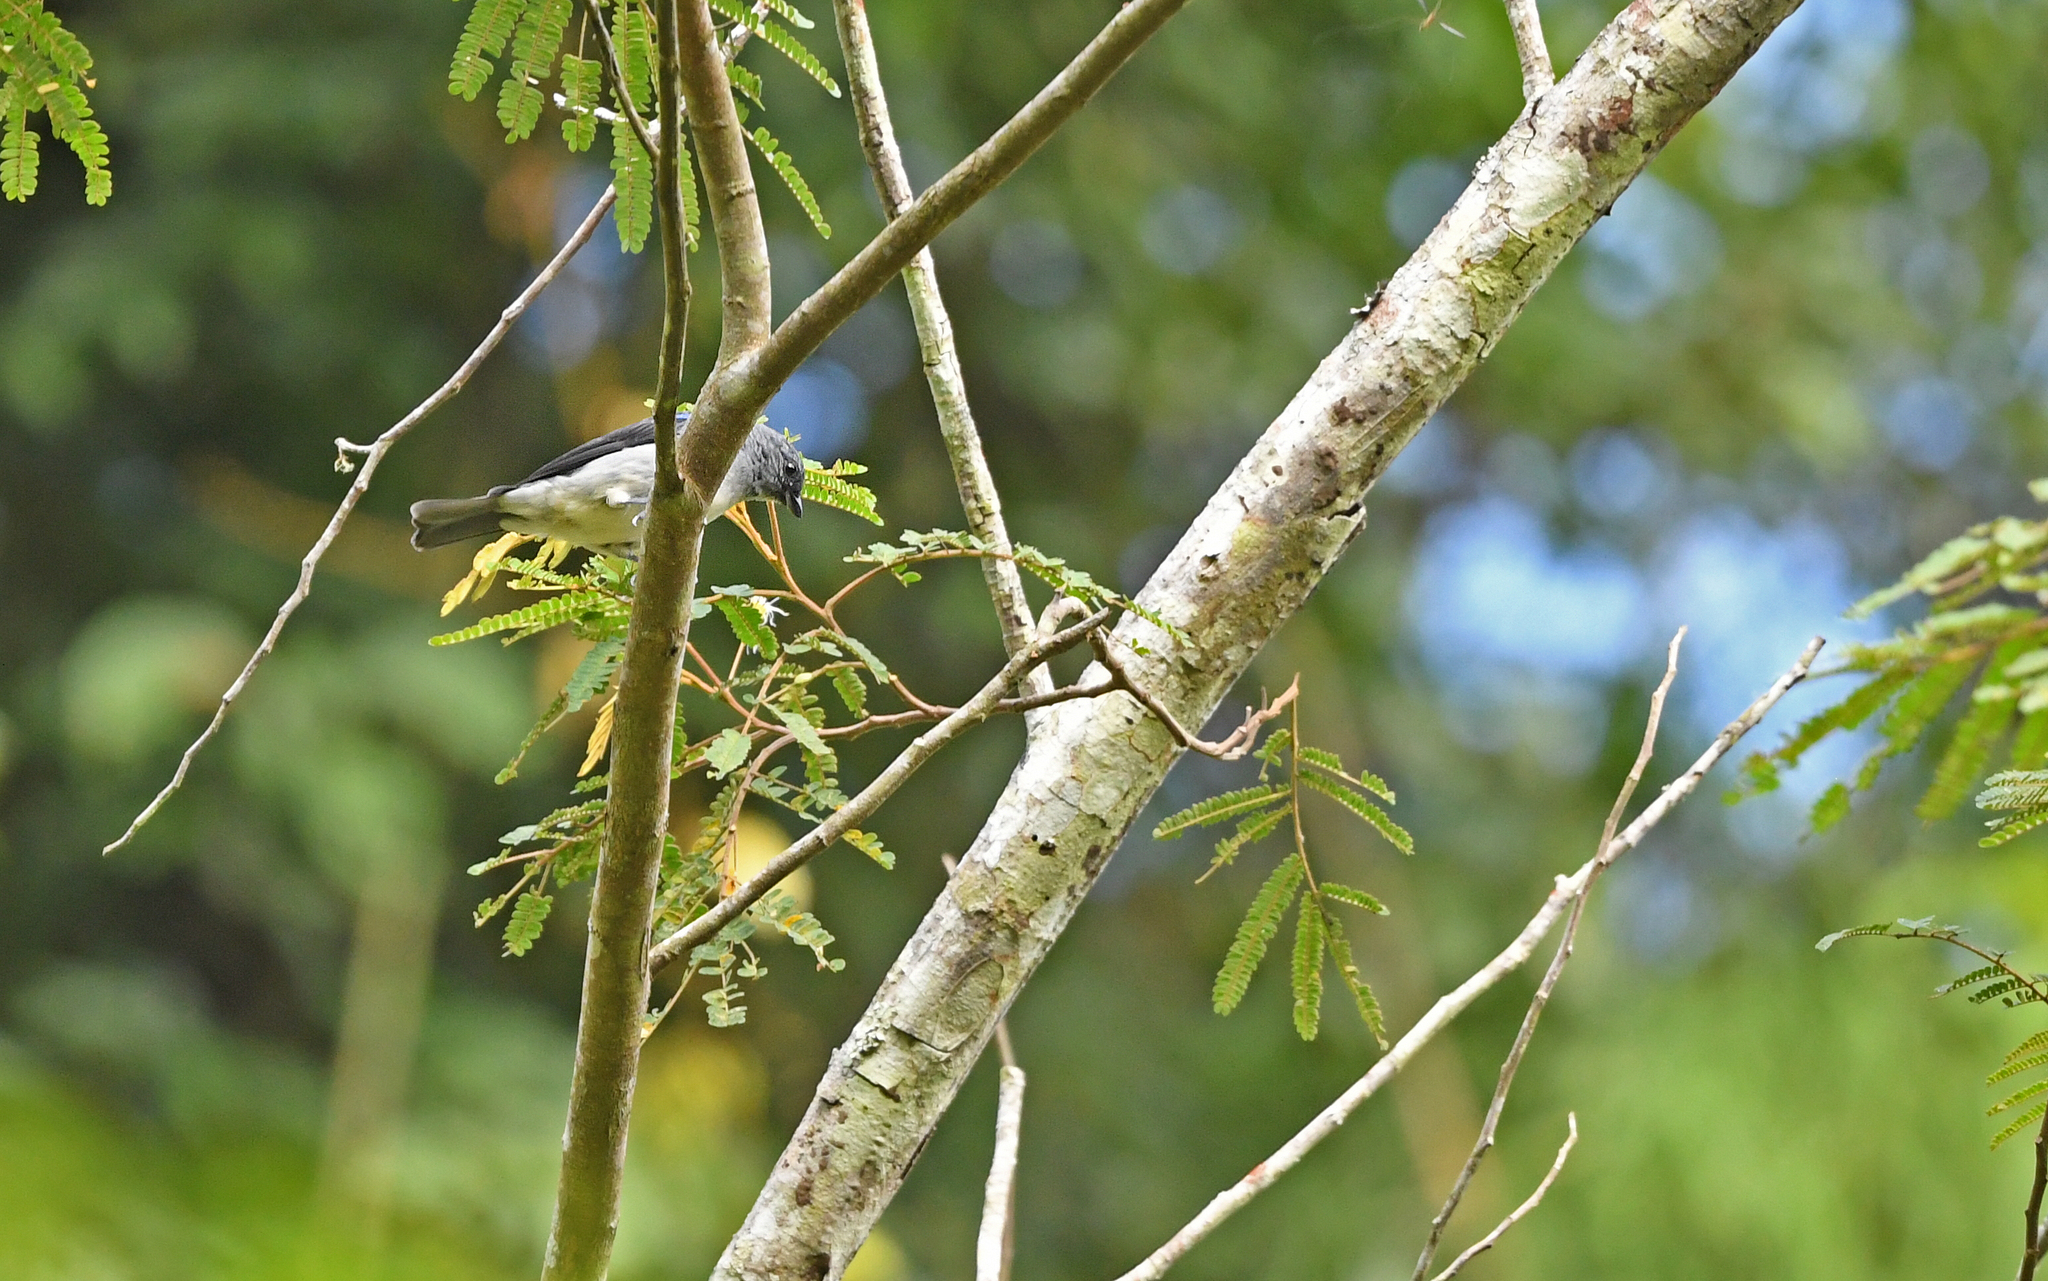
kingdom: Animalia
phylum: Chordata
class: Aves
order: Passeriformes
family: Thraupidae
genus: Tangara
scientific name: Tangara inornata
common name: Plain-colored tanager
